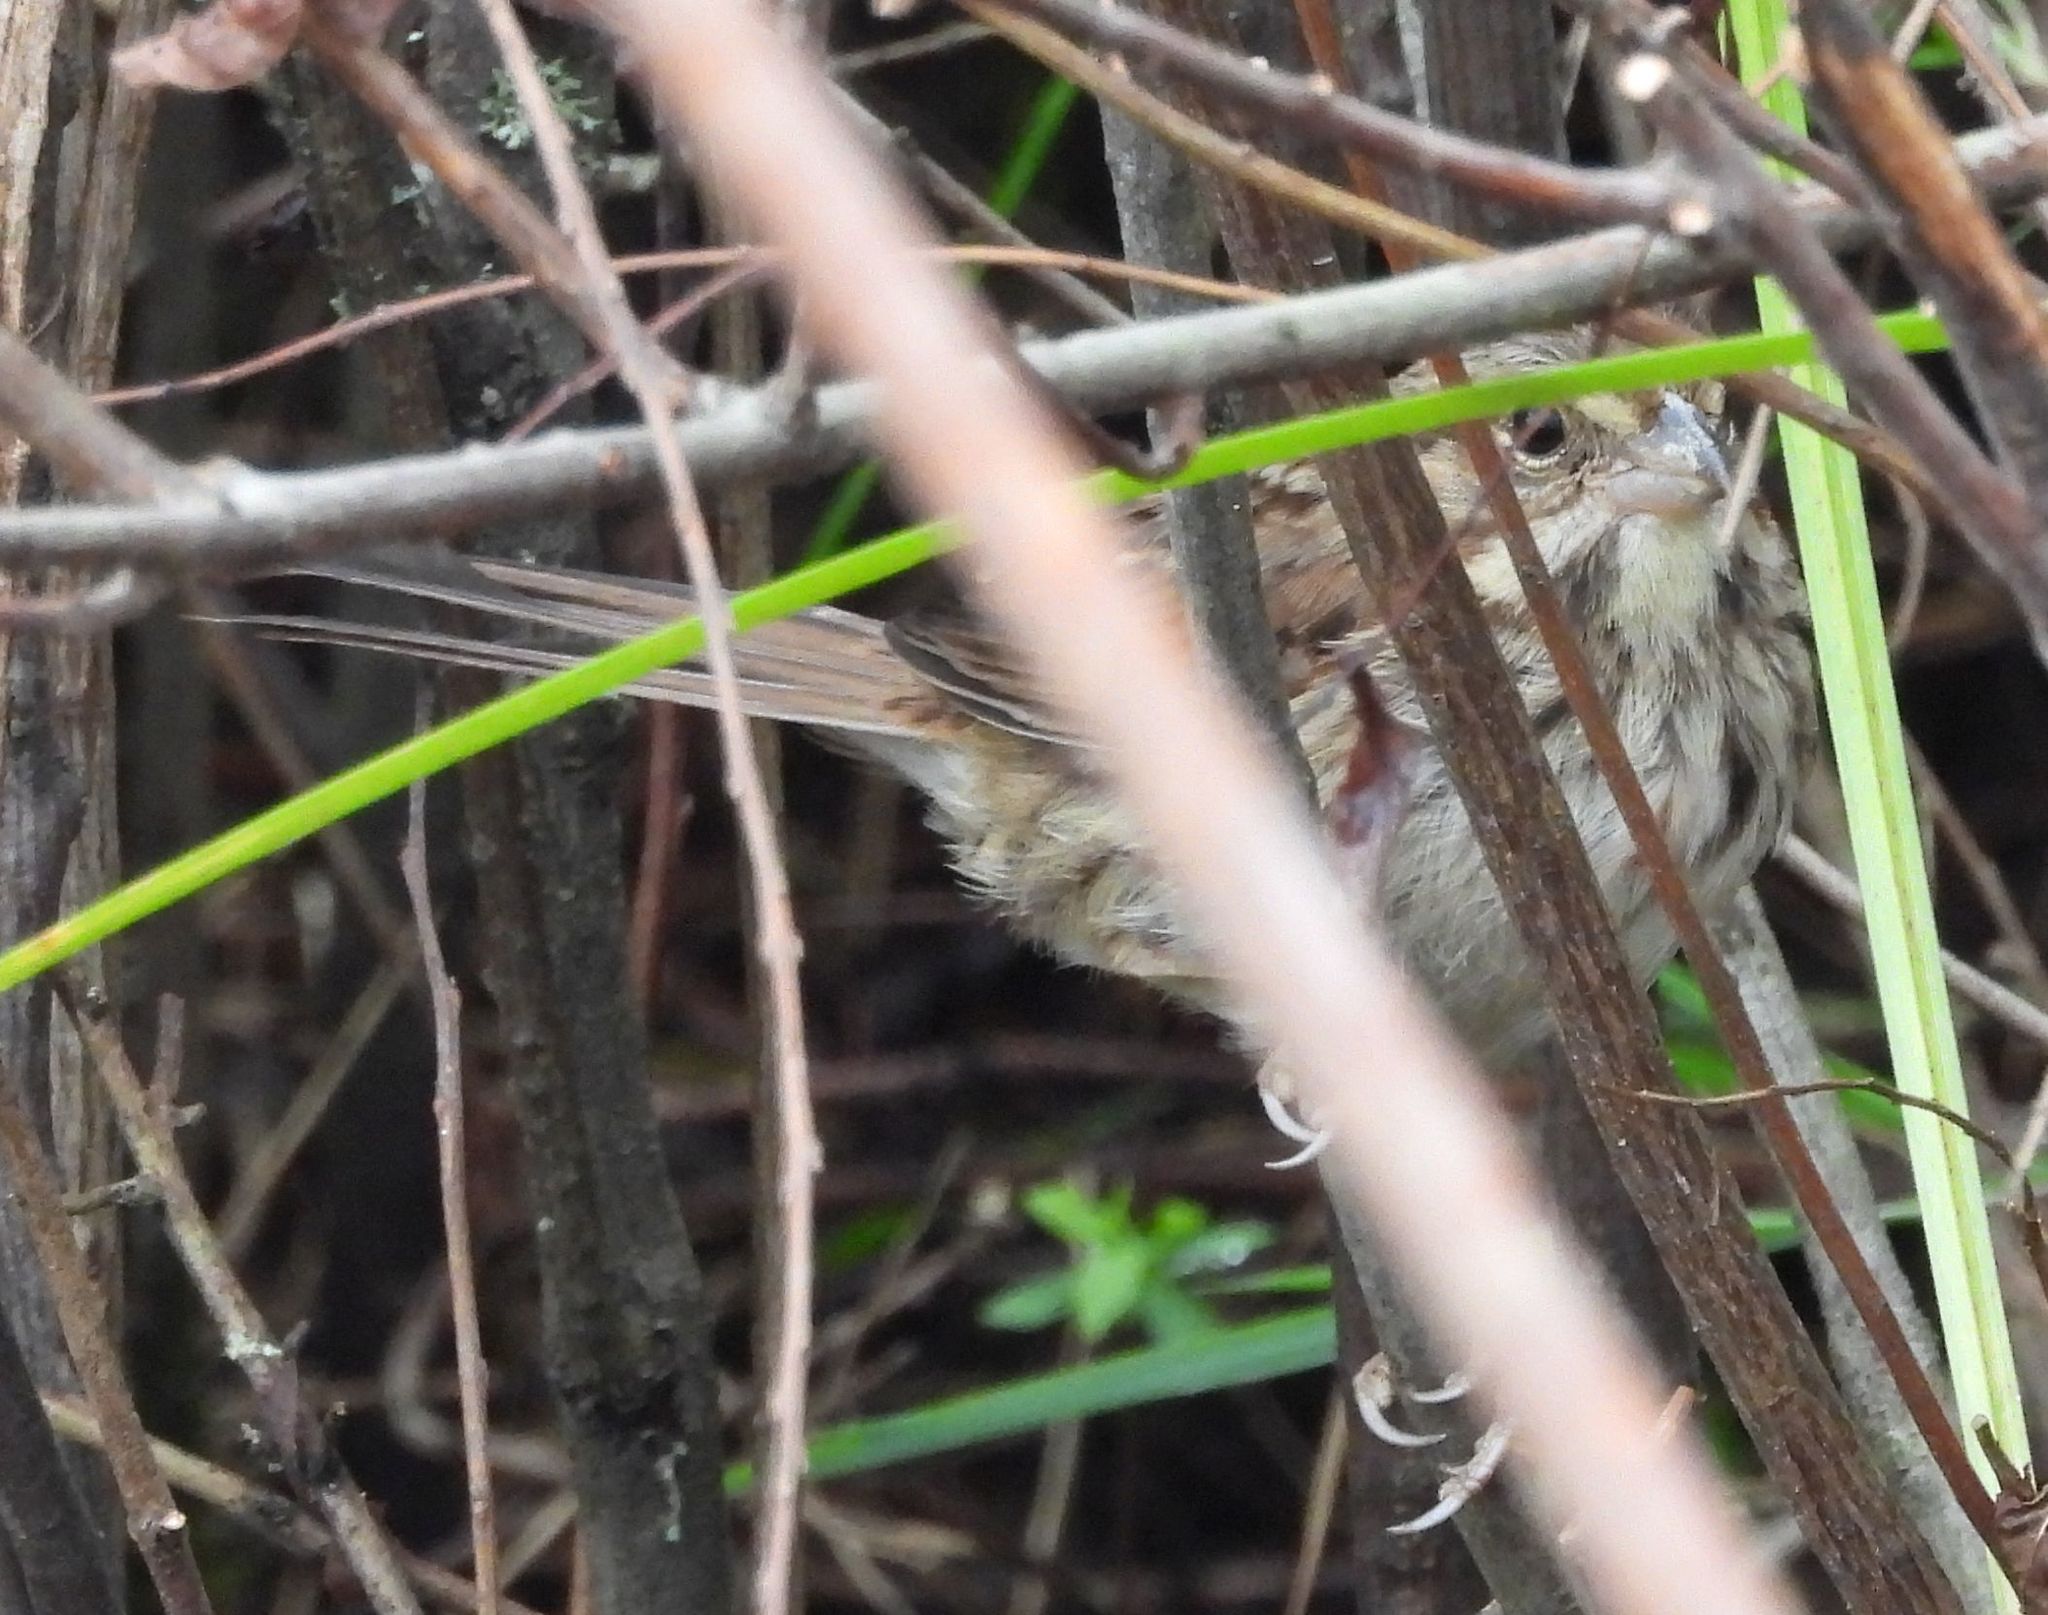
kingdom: Animalia
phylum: Chordata
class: Aves
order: Passeriformes
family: Passerellidae
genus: Melospiza
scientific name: Melospiza melodia
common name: Song sparrow
